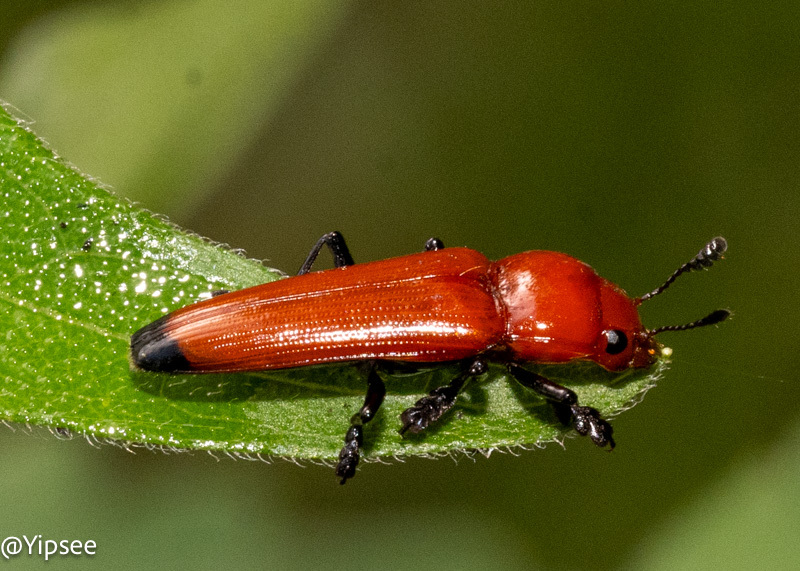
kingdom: Animalia
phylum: Arthropoda
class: Insecta
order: Coleoptera
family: Erotylidae
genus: Doubledaya
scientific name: Doubledaya
